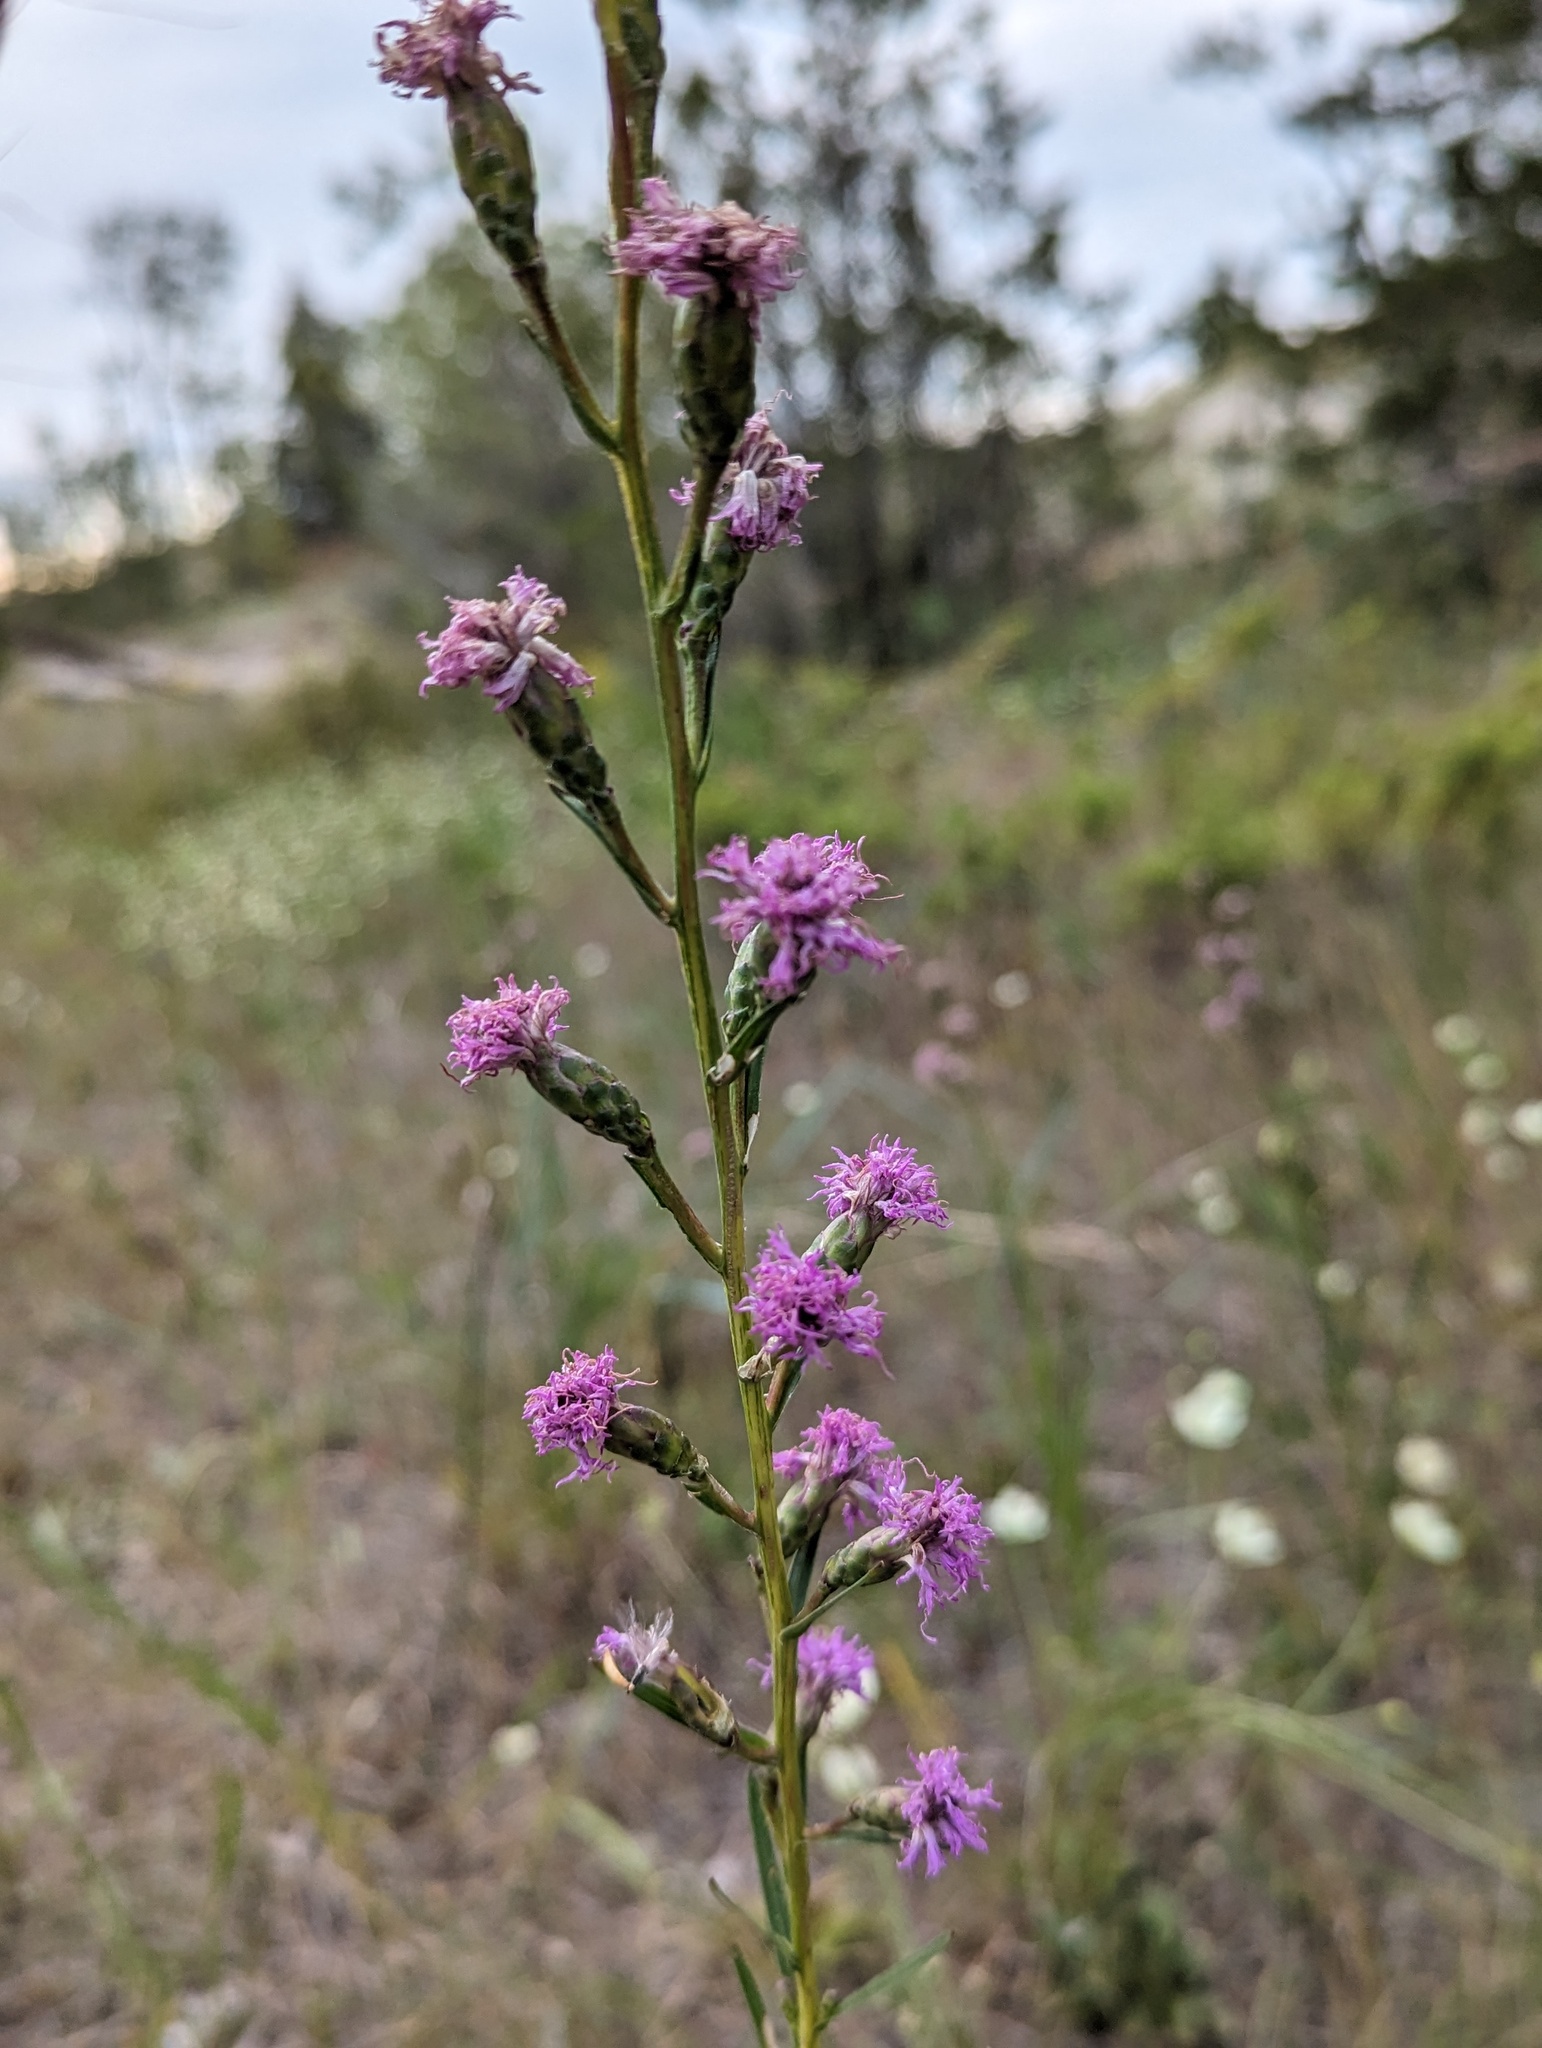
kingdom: Plantae
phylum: Tracheophyta
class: Magnoliopsida
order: Asterales
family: Asteraceae
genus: Liatris
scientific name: Liatris cylindracea
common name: Few-head blazingstar
